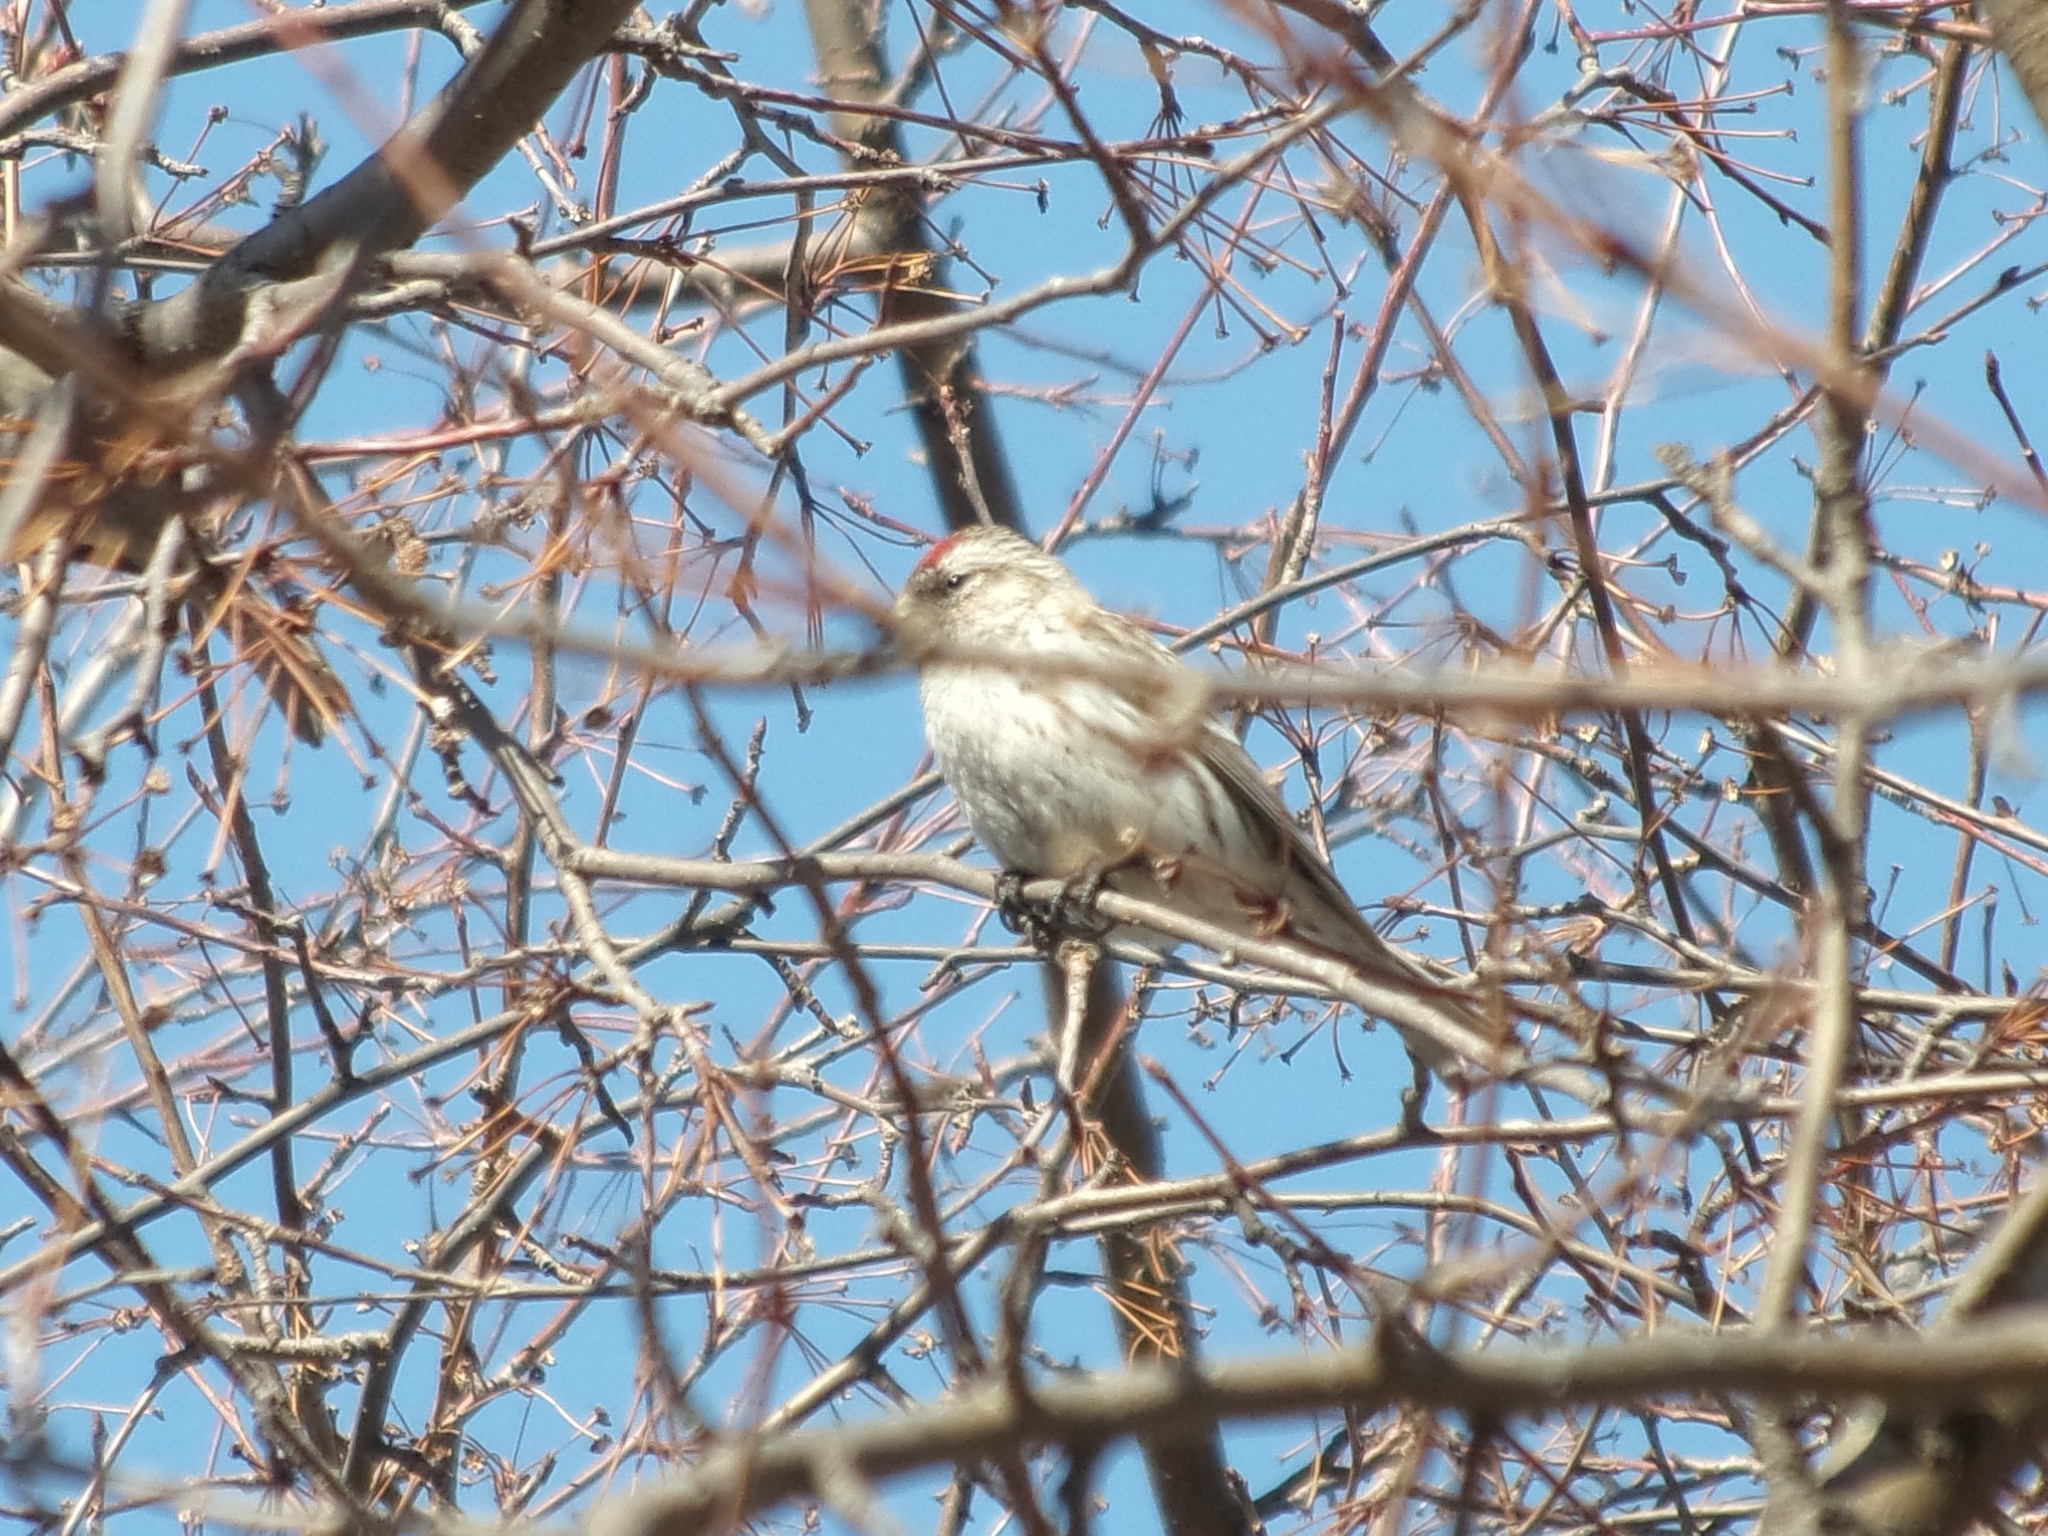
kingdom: Animalia
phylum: Chordata
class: Aves
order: Passeriformes
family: Fringillidae
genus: Acanthis
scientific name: Acanthis flammea
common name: Common redpoll
